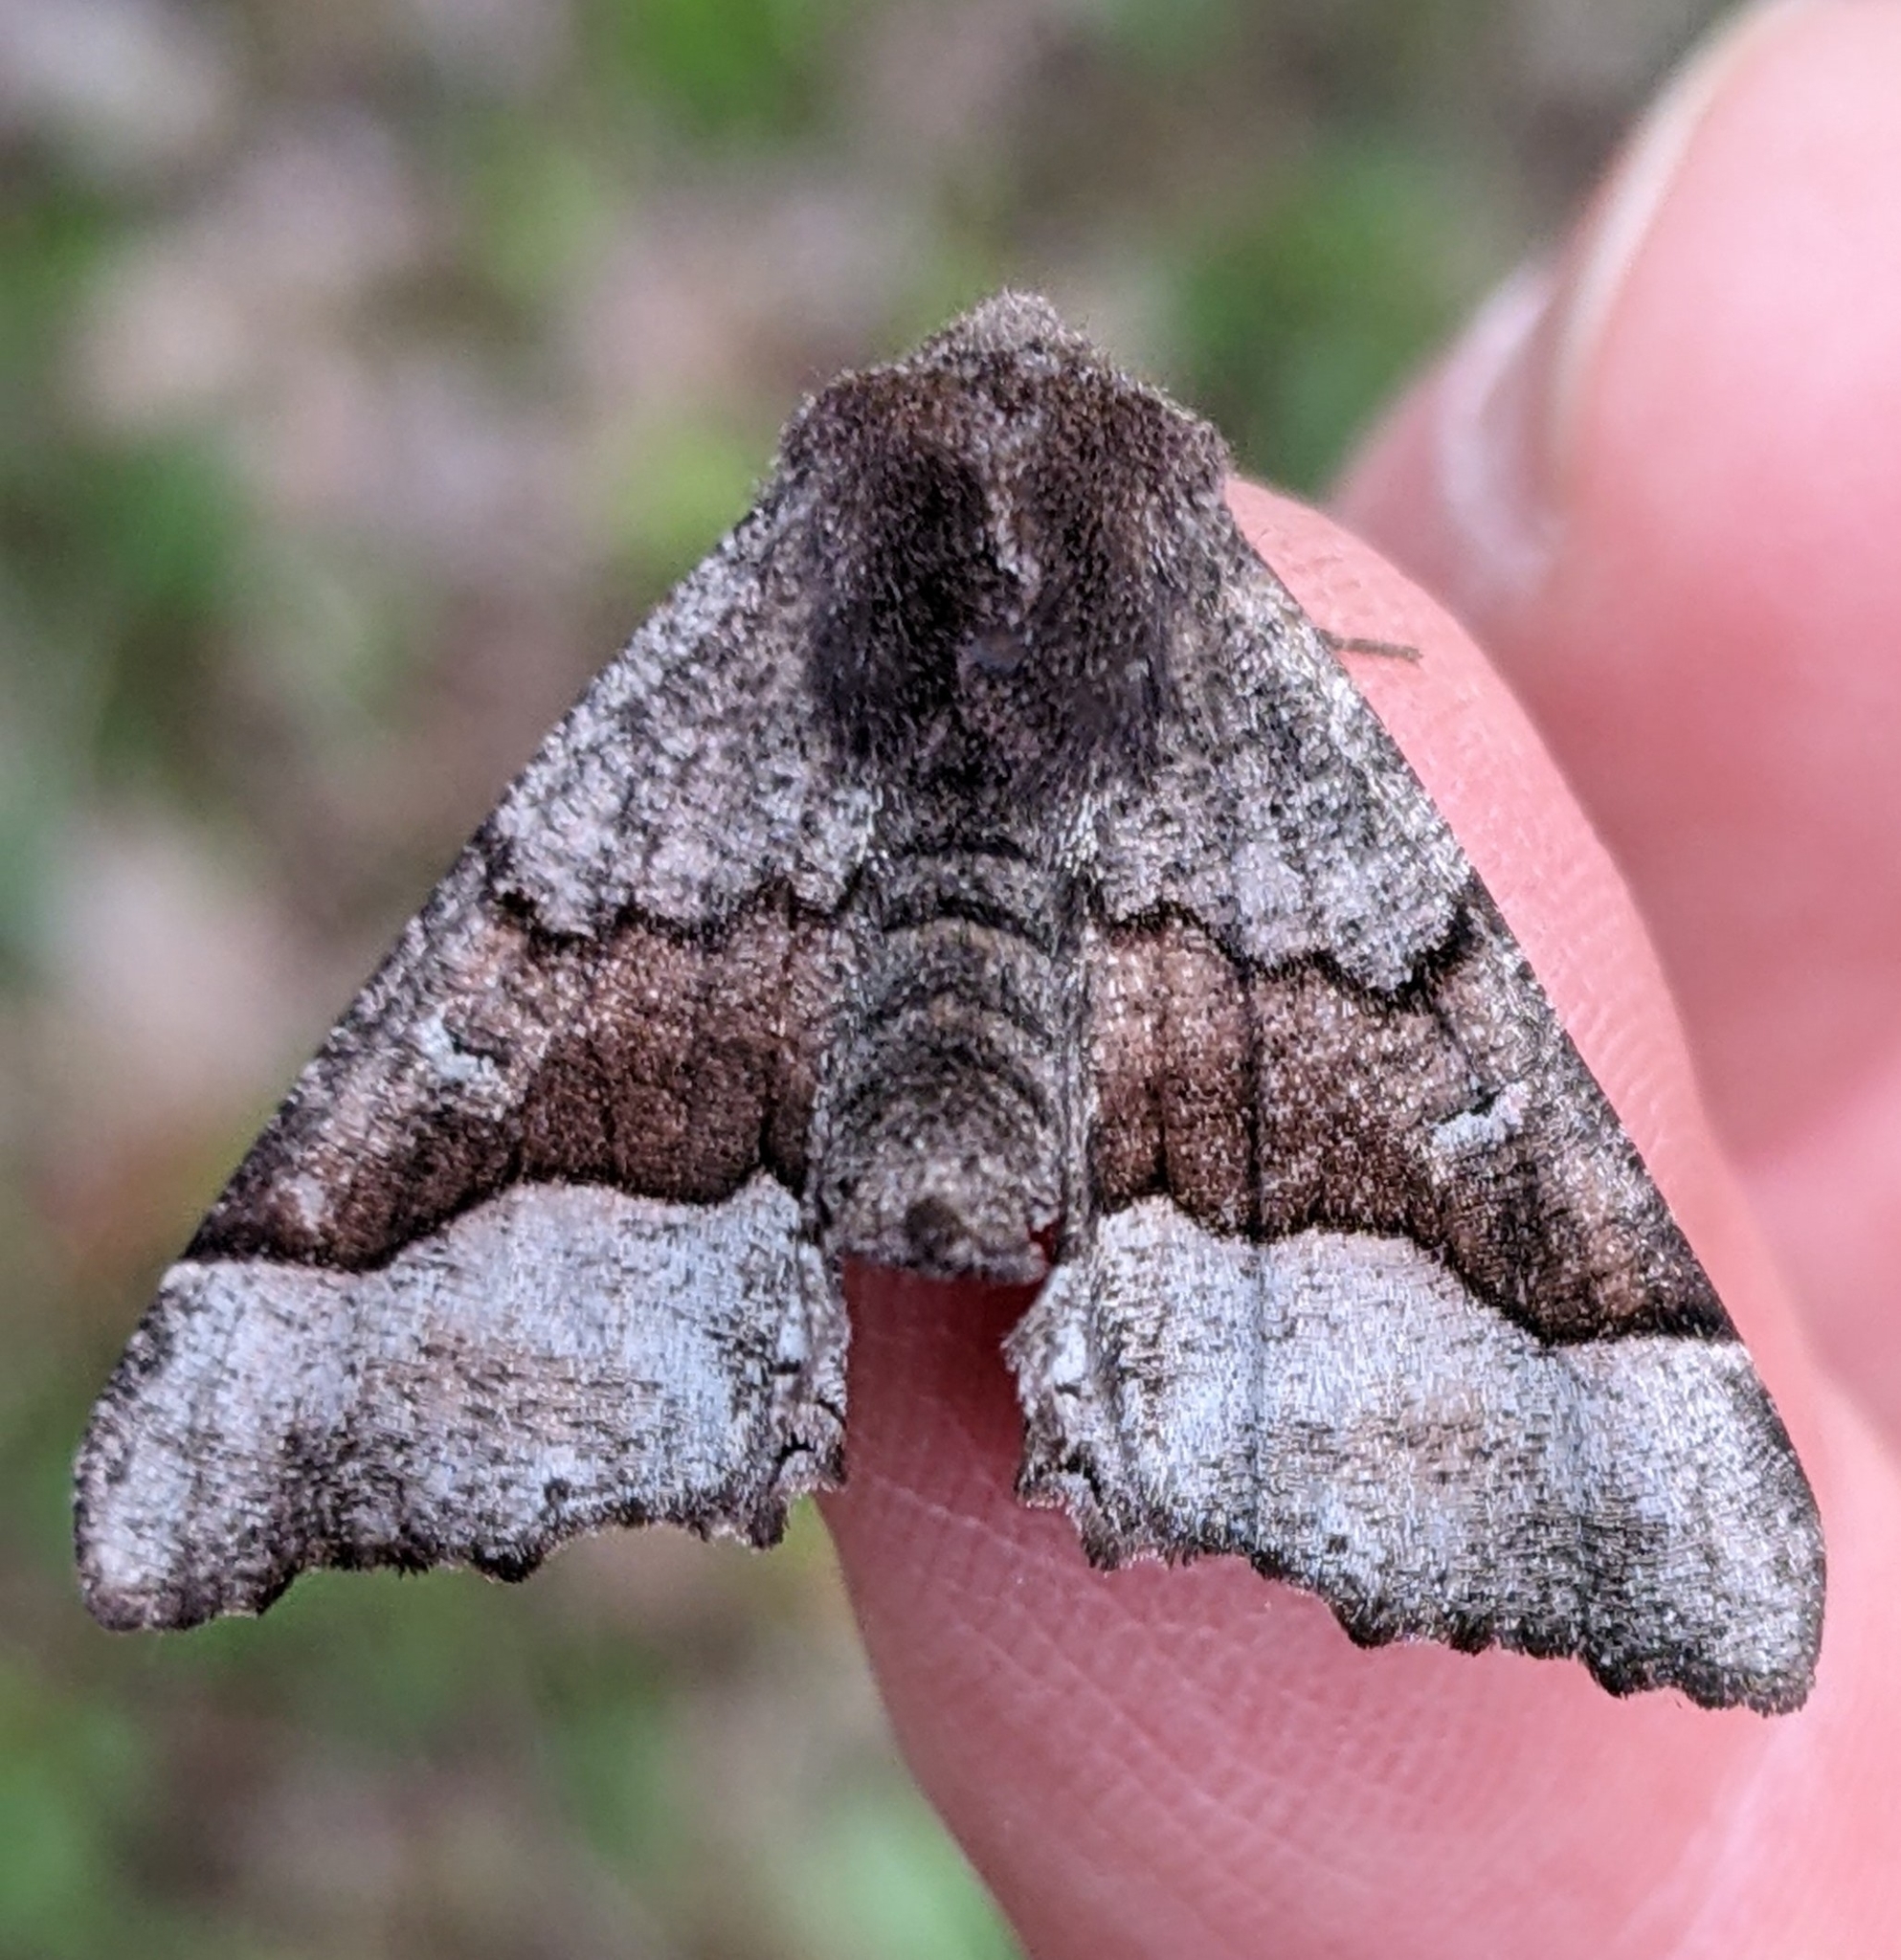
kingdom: Animalia
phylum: Arthropoda
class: Insecta
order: Lepidoptera
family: Geometridae
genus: Pero
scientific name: Pero behrensaria
